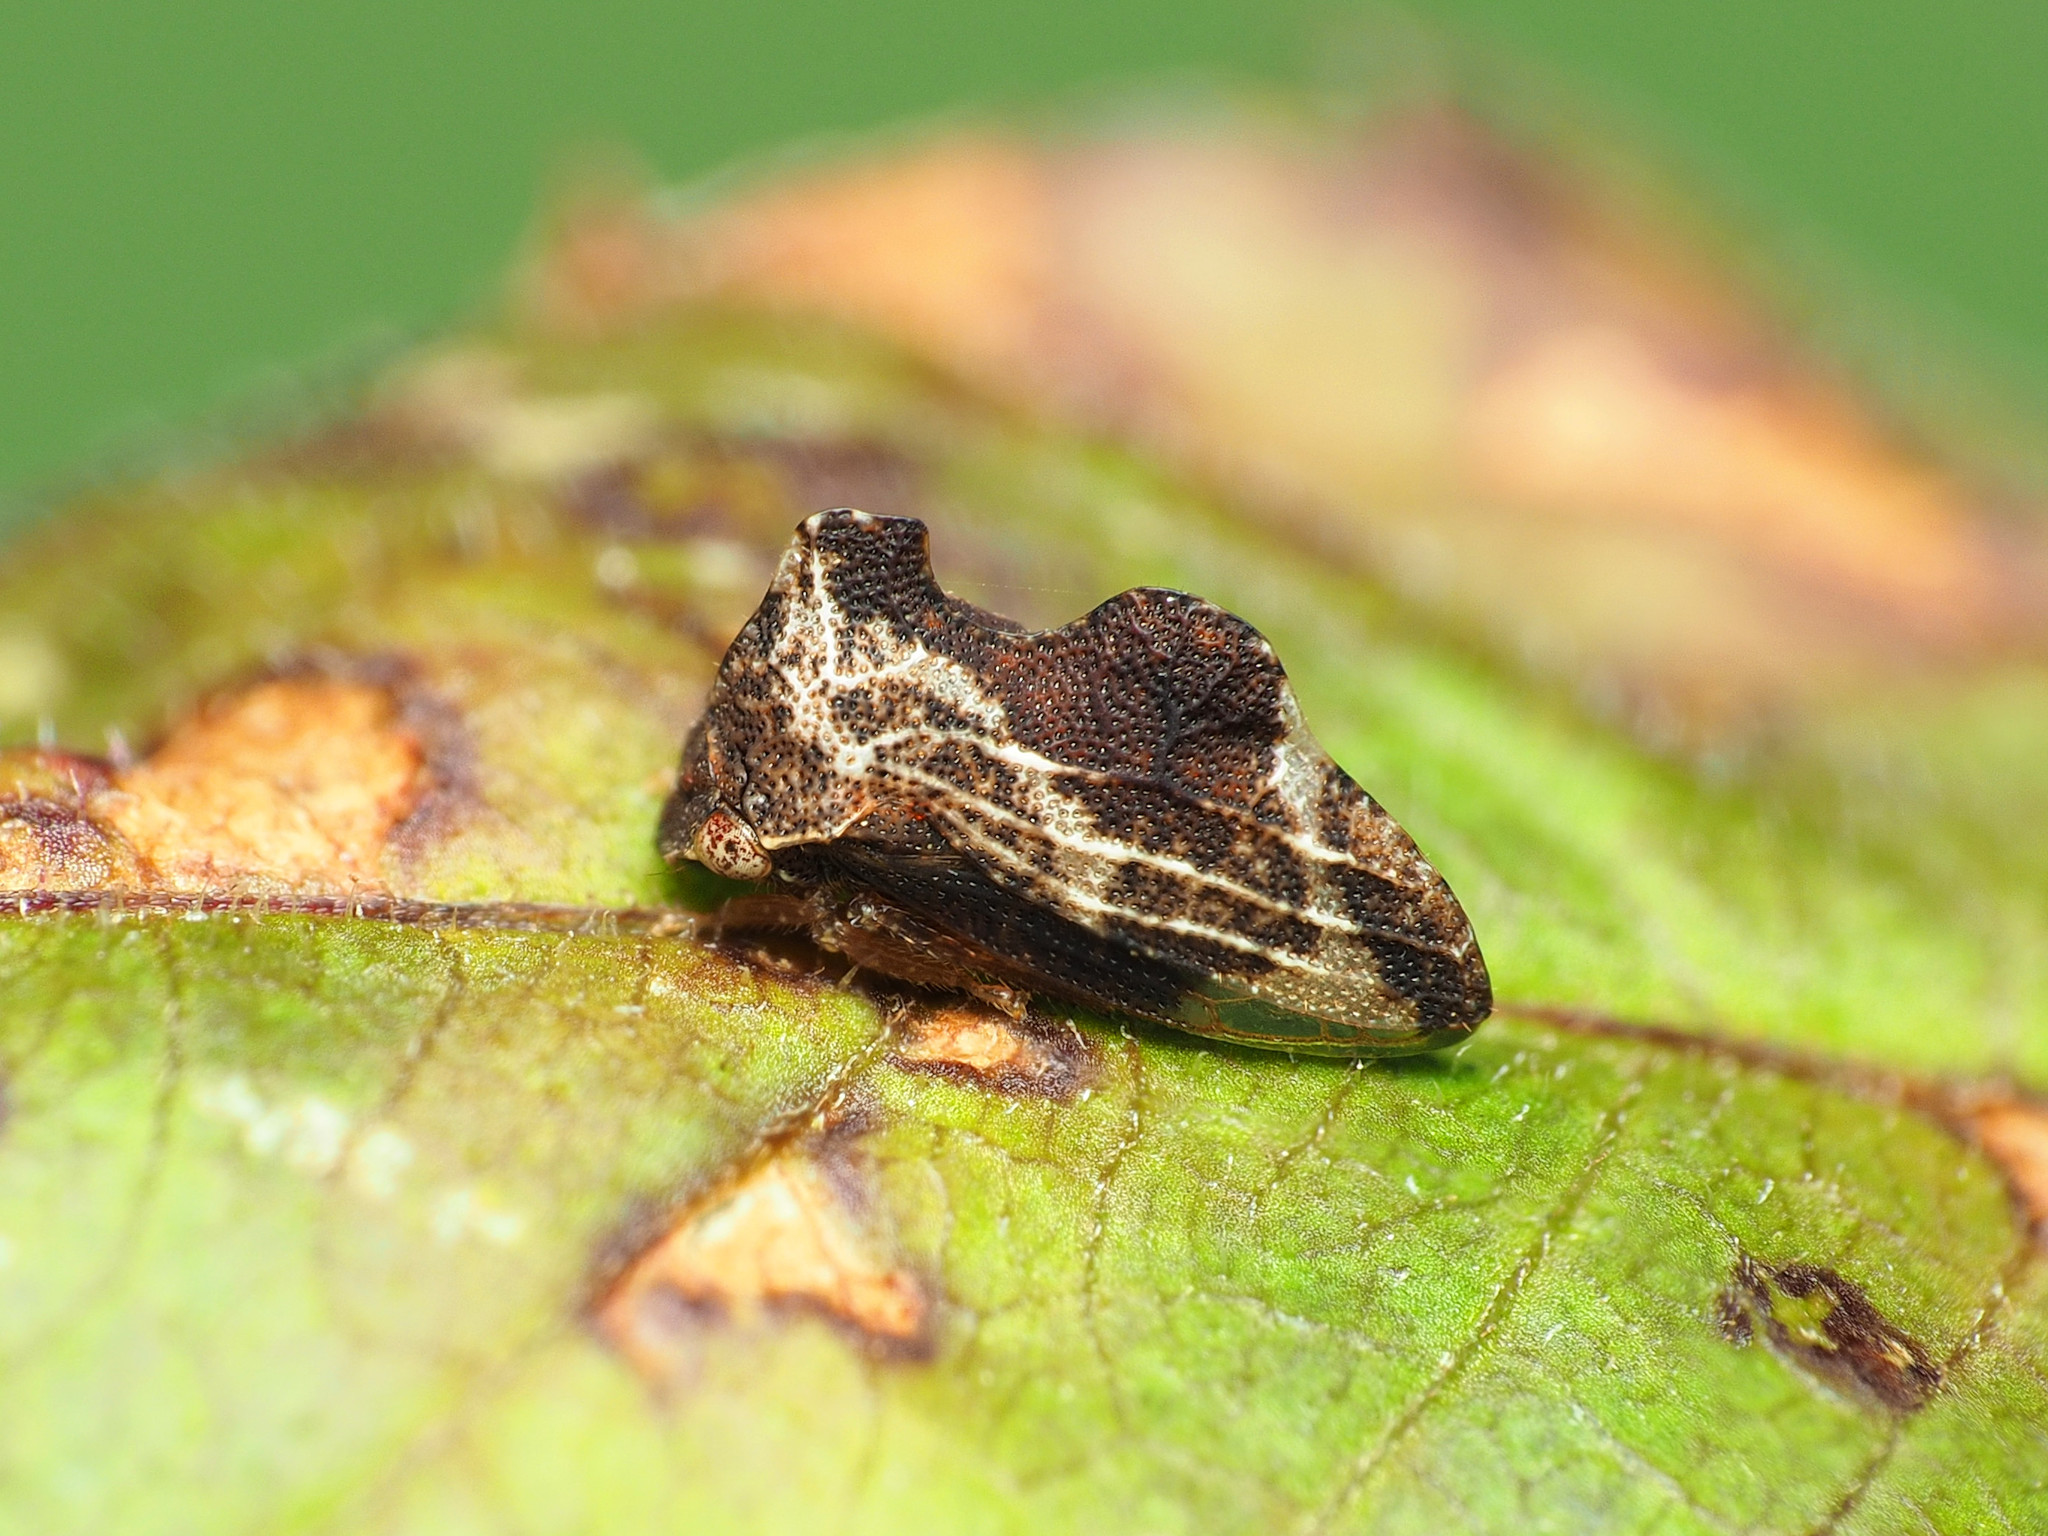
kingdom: Animalia
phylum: Arthropoda
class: Insecta
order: Hemiptera
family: Membracidae
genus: Entylia
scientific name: Entylia carinata
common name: Keeled treehopper
